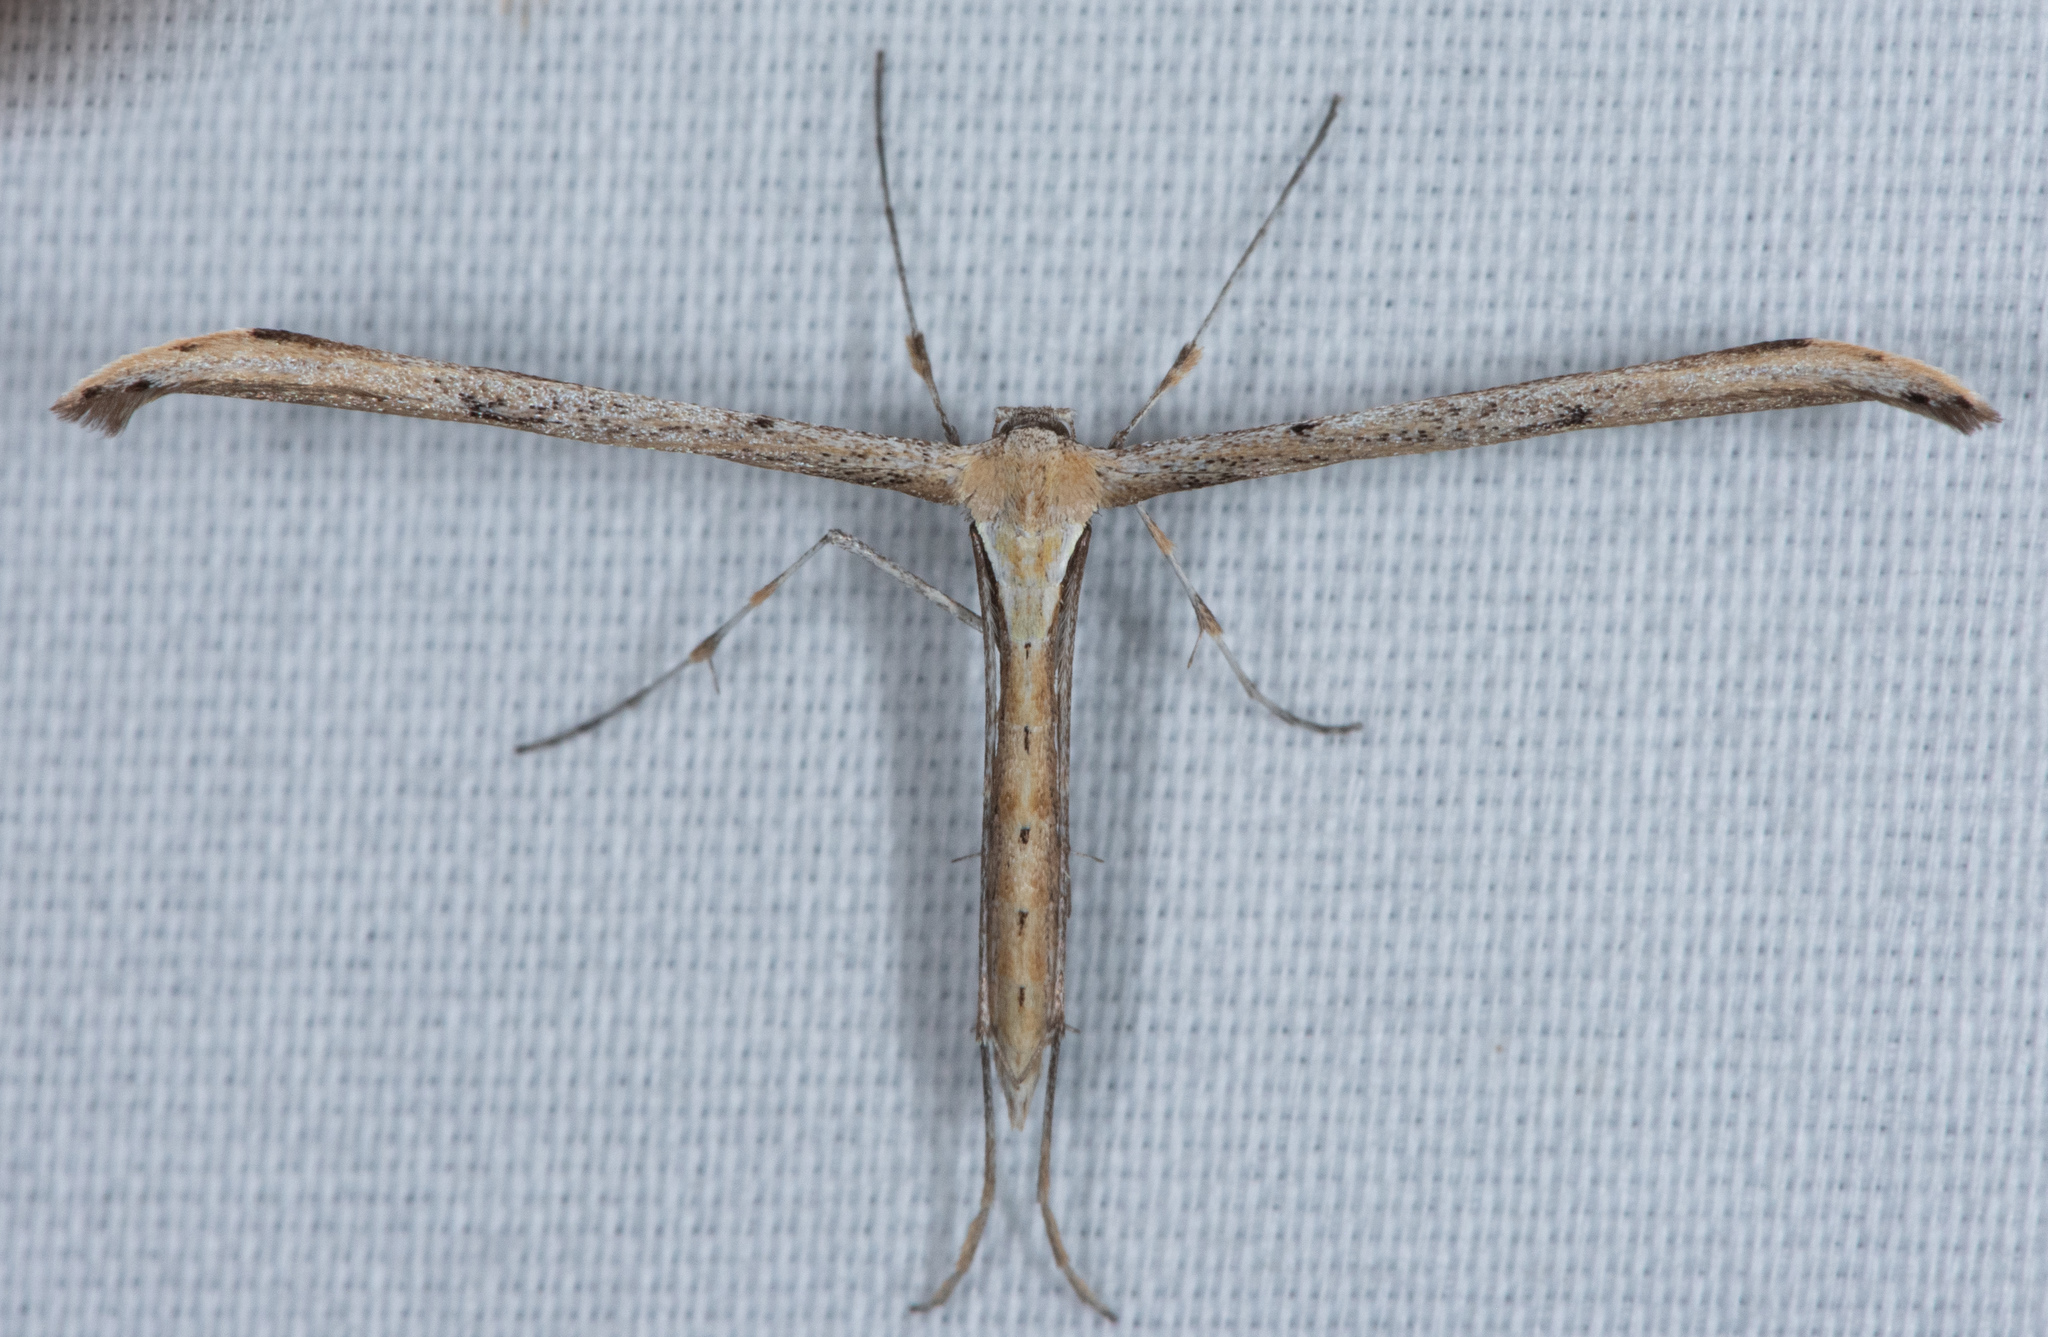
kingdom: Animalia
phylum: Arthropoda
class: Insecta
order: Lepidoptera
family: Pterophoridae
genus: Emmelina
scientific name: Emmelina monodactyla
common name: Common plume
